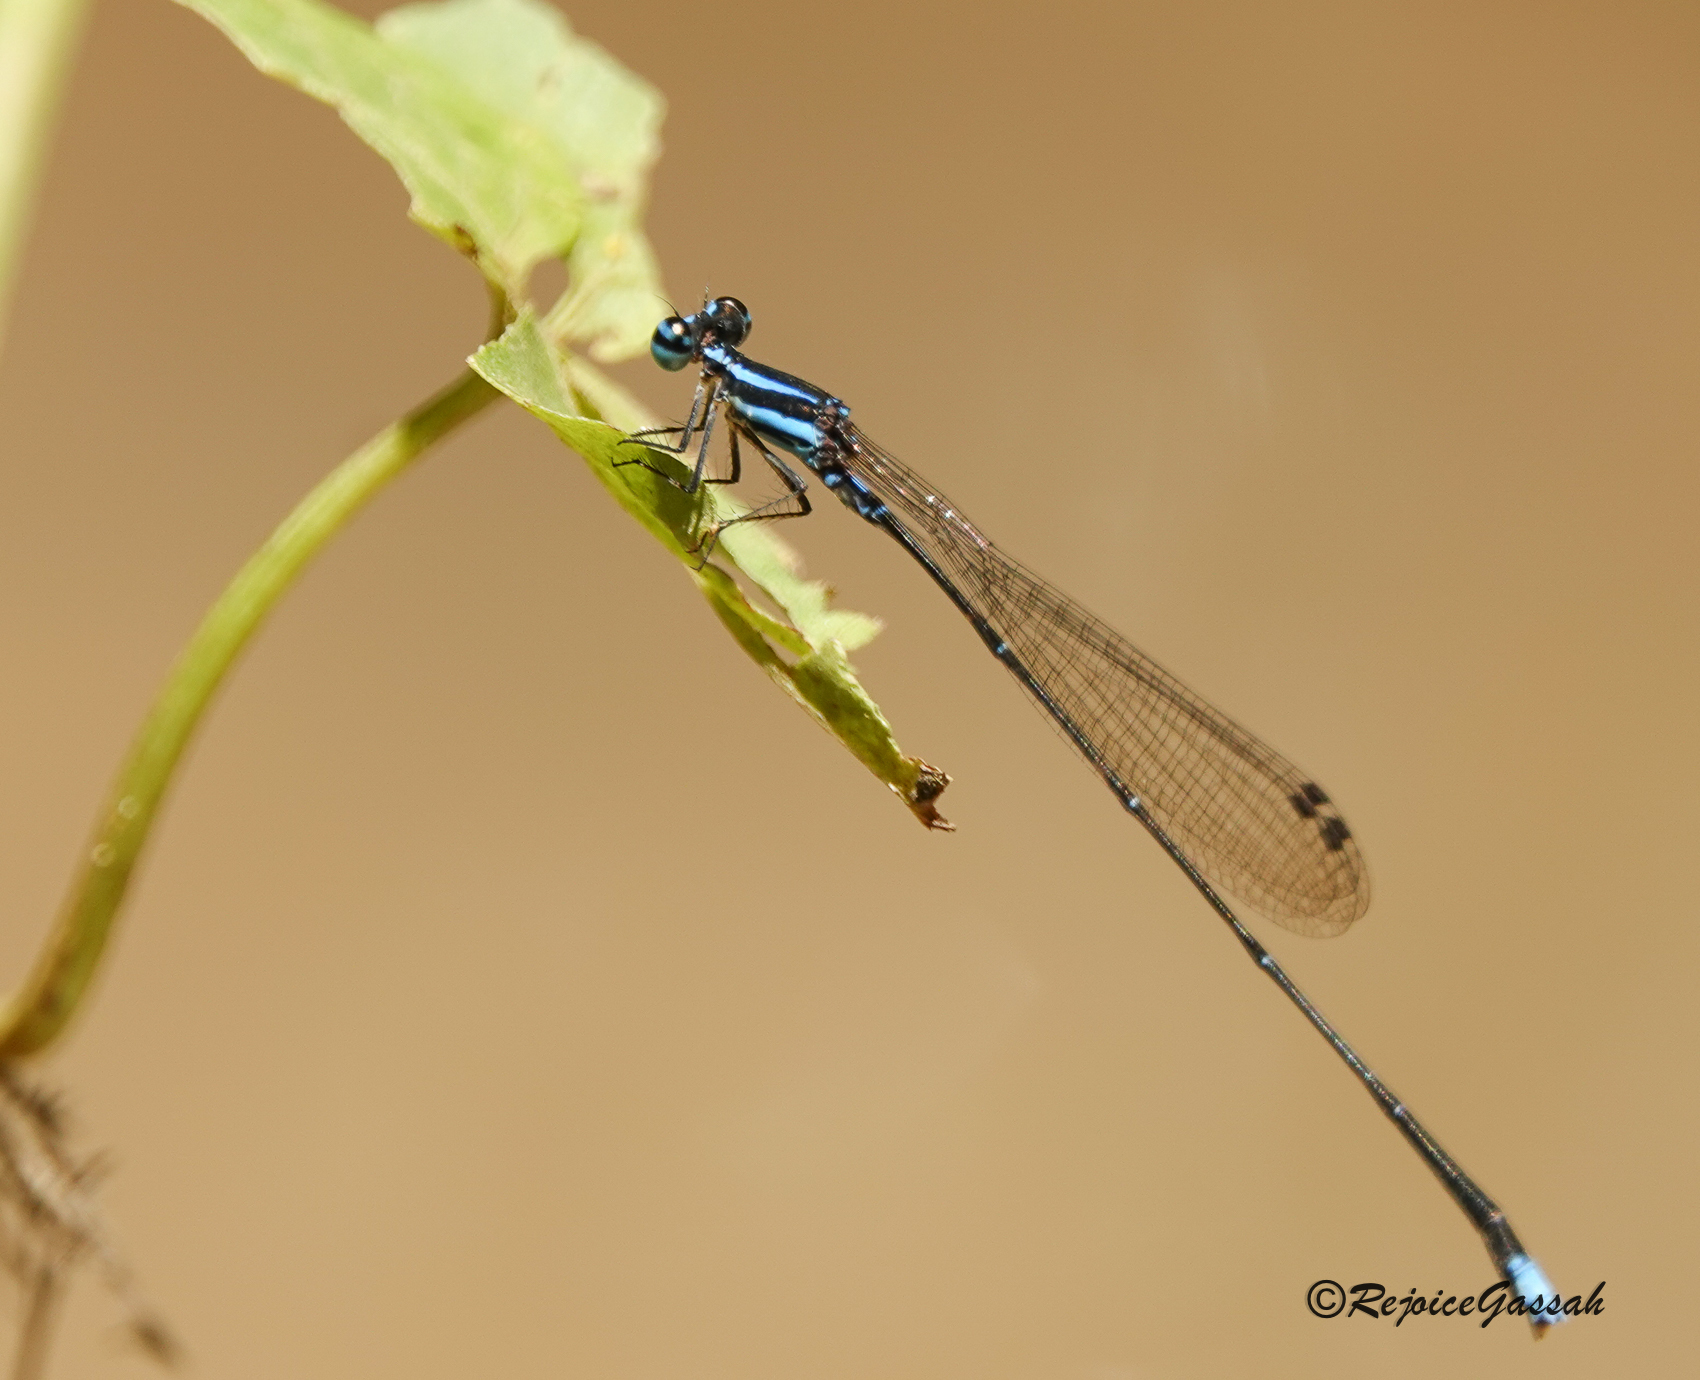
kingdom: Animalia
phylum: Arthropoda
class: Insecta
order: Odonata
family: Platycnemididae
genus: Elattoneura
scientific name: Elattoneura campioni
